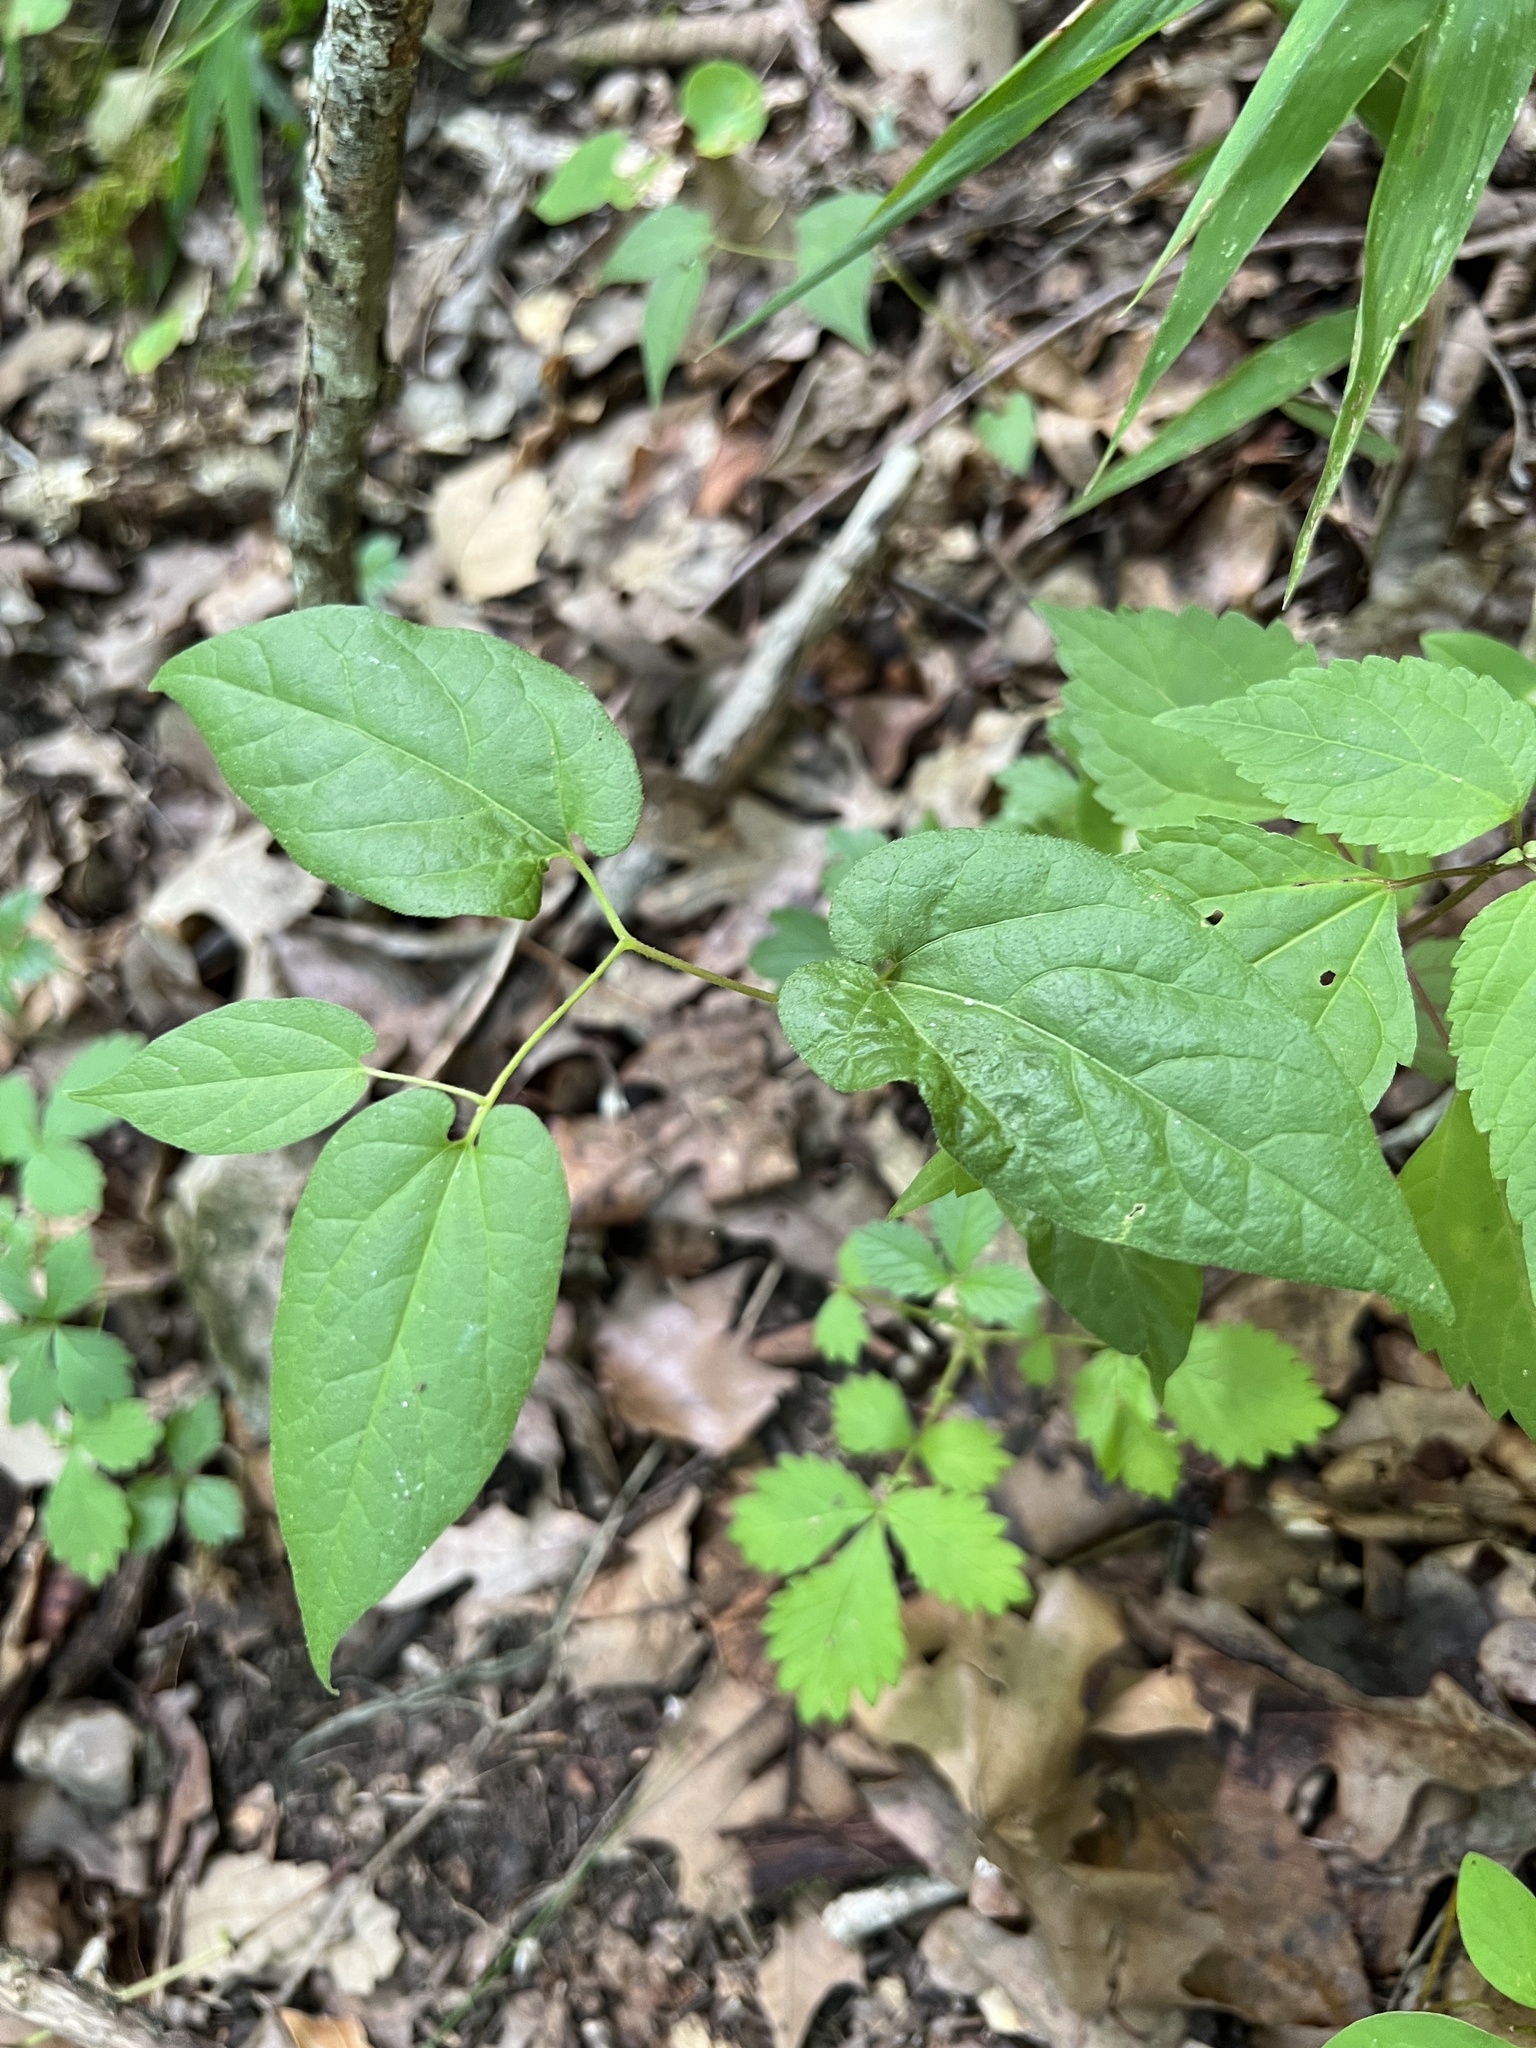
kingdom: Plantae
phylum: Tracheophyta
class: Magnoliopsida
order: Piperales
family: Aristolochiaceae
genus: Endodeca
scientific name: Endodeca serpentaria
